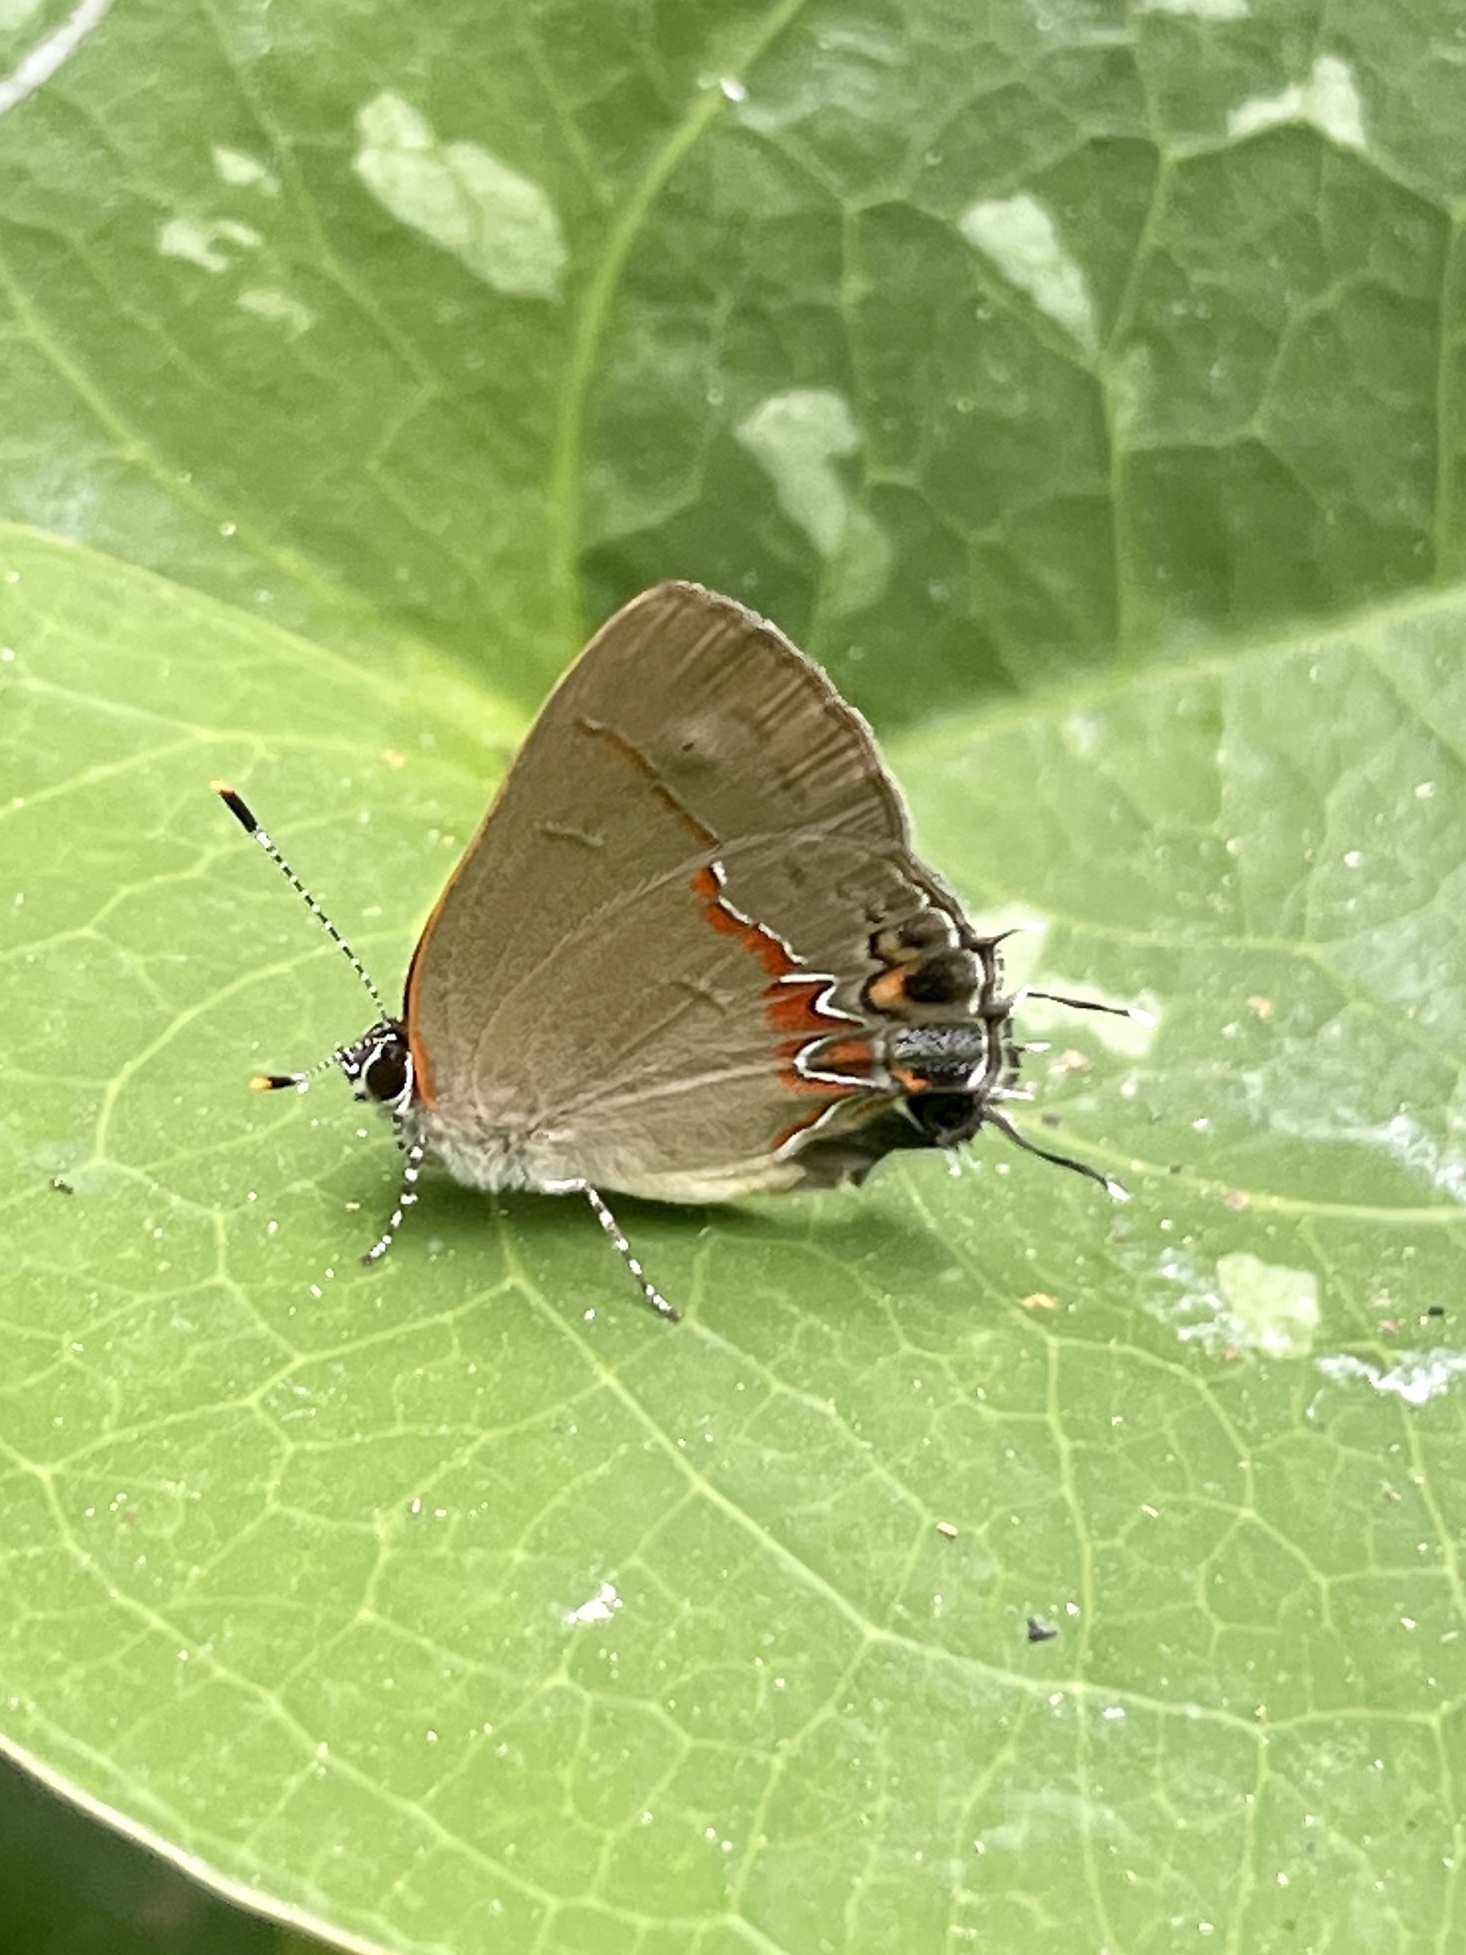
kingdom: Animalia
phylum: Arthropoda
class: Insecta
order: Lepidoptera
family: Lycaenidae
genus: Calycopis
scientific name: Calycopis isobeon
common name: Dusky-blue groundstreak
